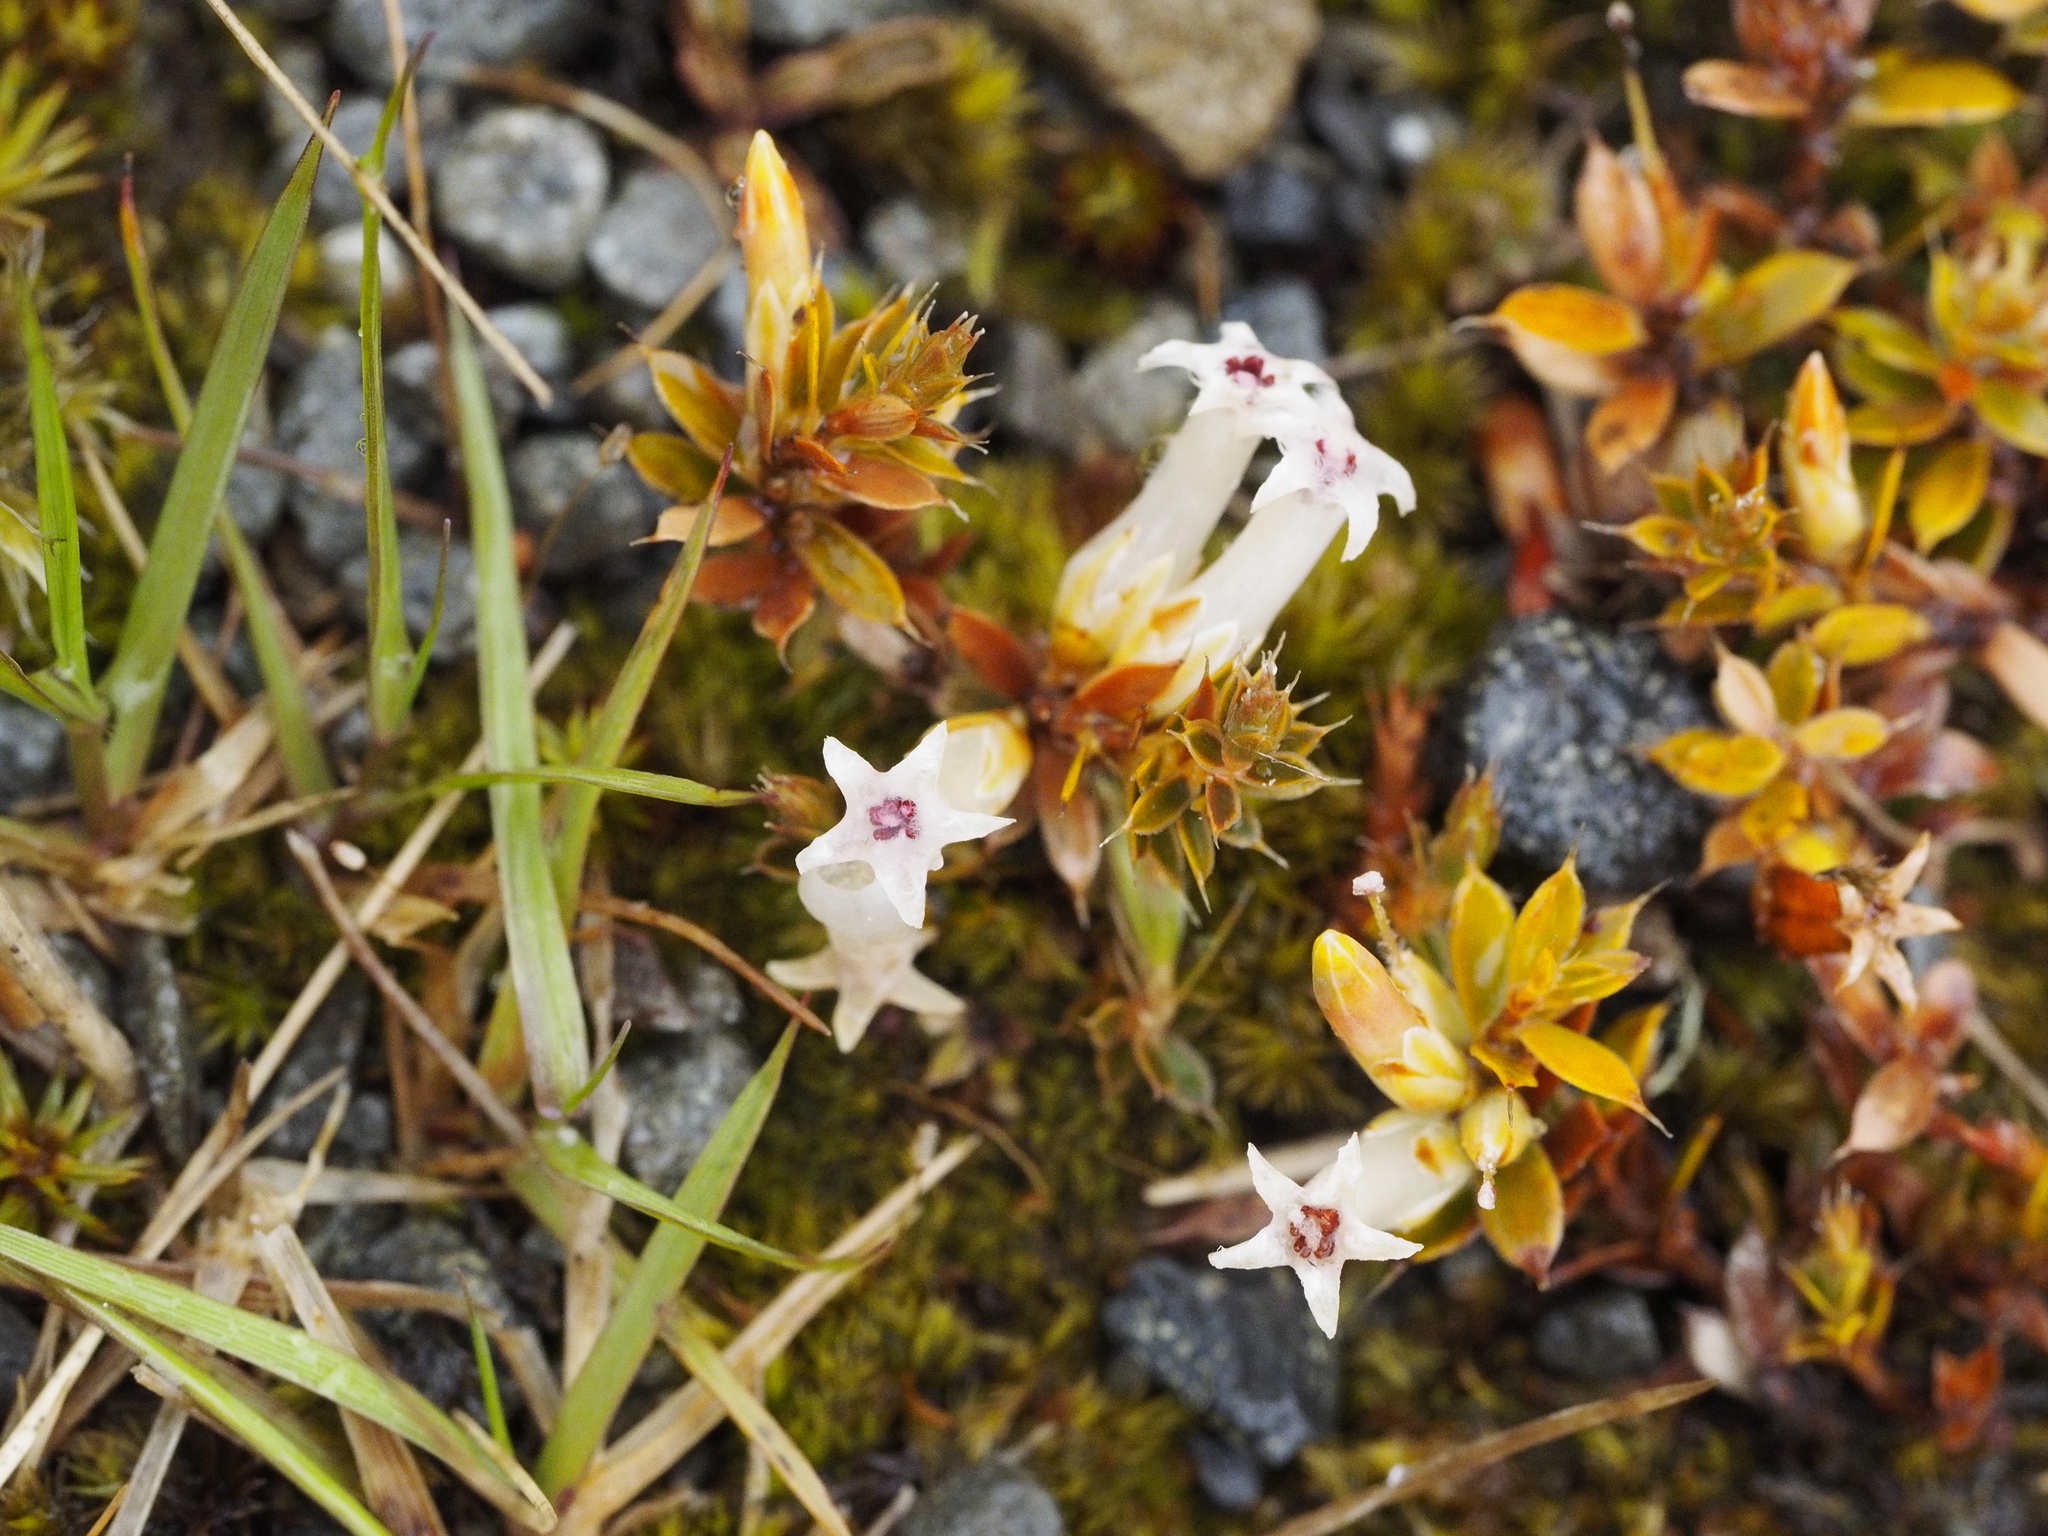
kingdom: Plantae
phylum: Tracheophyta
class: Magnoliopsida
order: Ericales
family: Ericaceae
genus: Styphelia
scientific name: Styphelia nesophila
